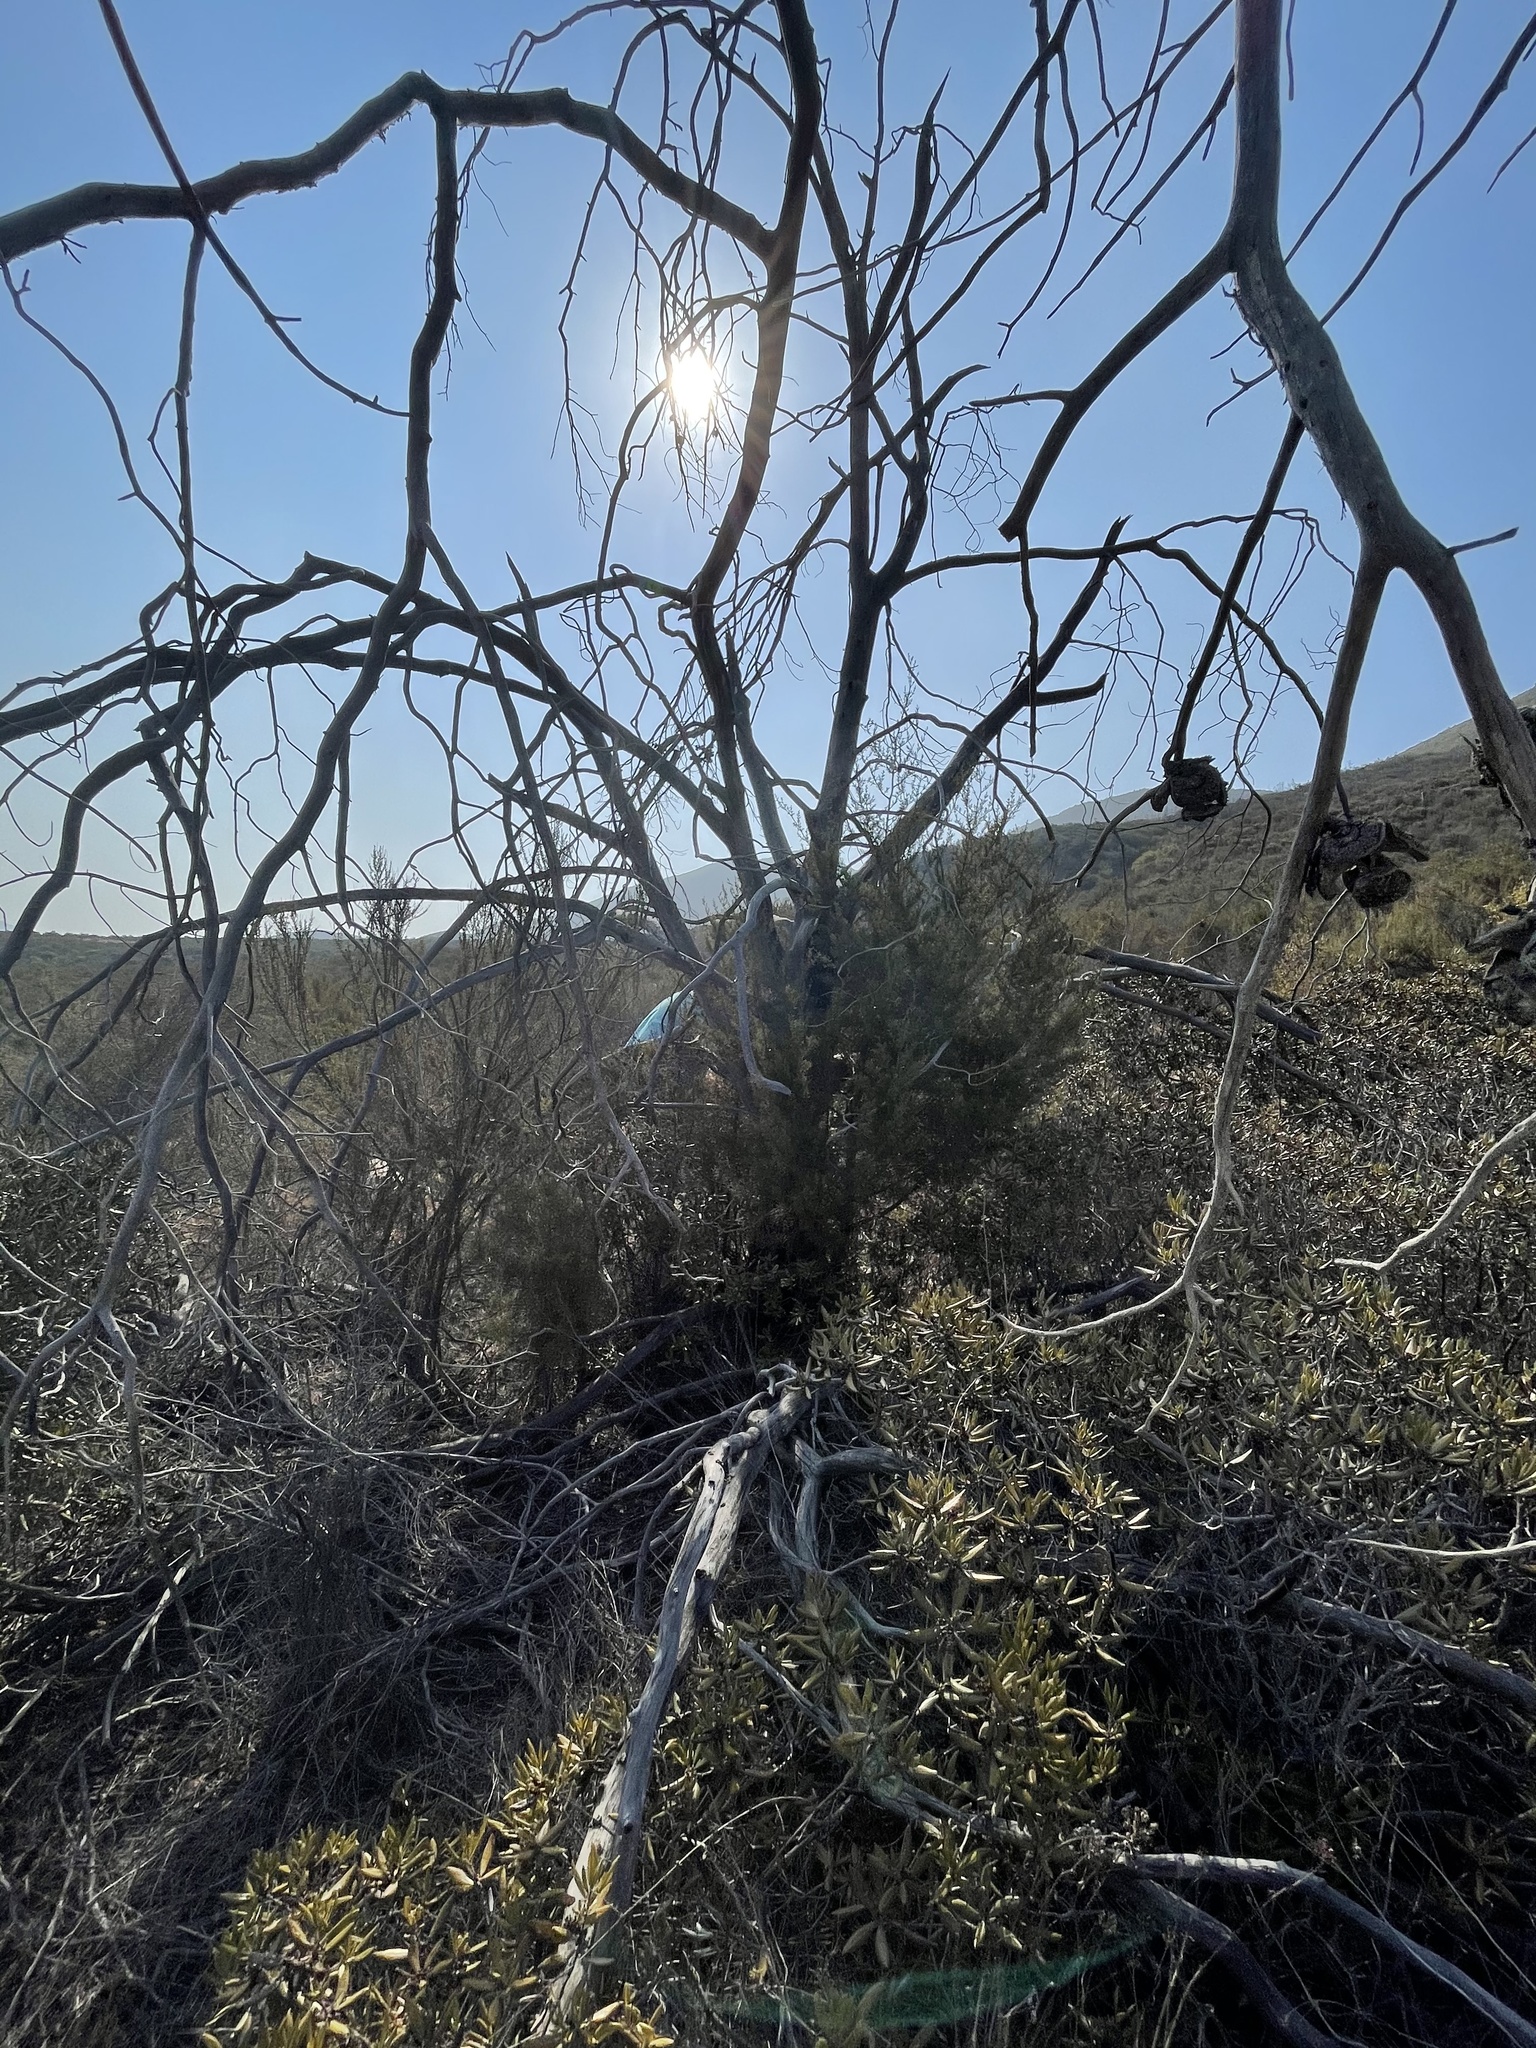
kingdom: Plantae
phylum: Tracheophyta
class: Pinopsida
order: Pinales
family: Cupressaceae
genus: Cupressus
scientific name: Cupressus guadalupensis
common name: Forbes cypress
